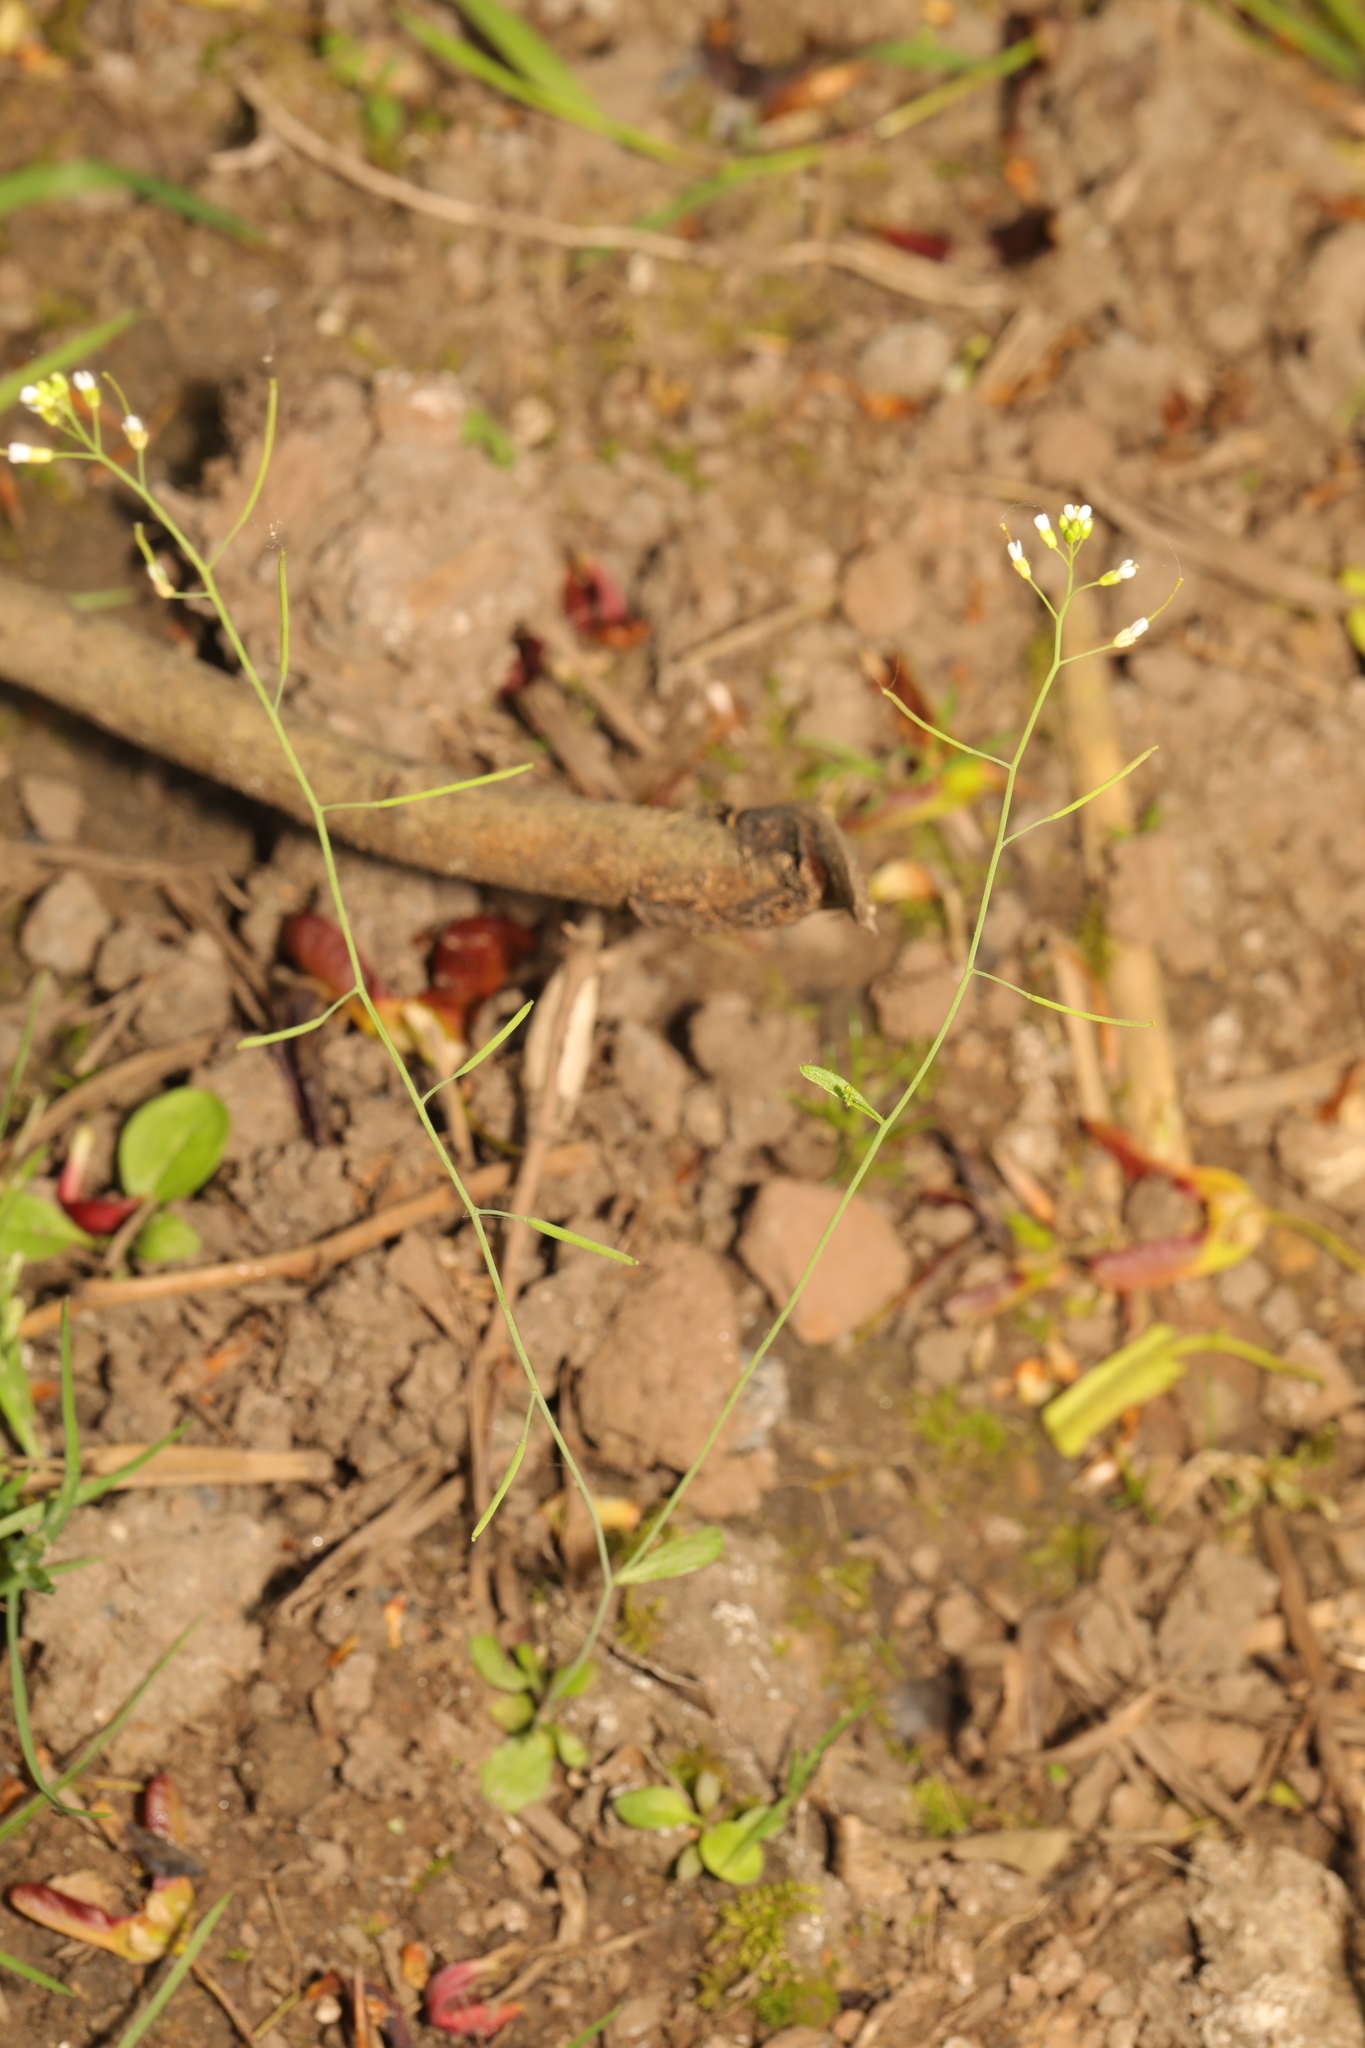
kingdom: Plantae
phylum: Tracheophyta
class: Magnoliopsida
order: Brassicales
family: Brassicaceae
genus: Arabidopsis
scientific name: Arabidopsis thaliana
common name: Thale cress
